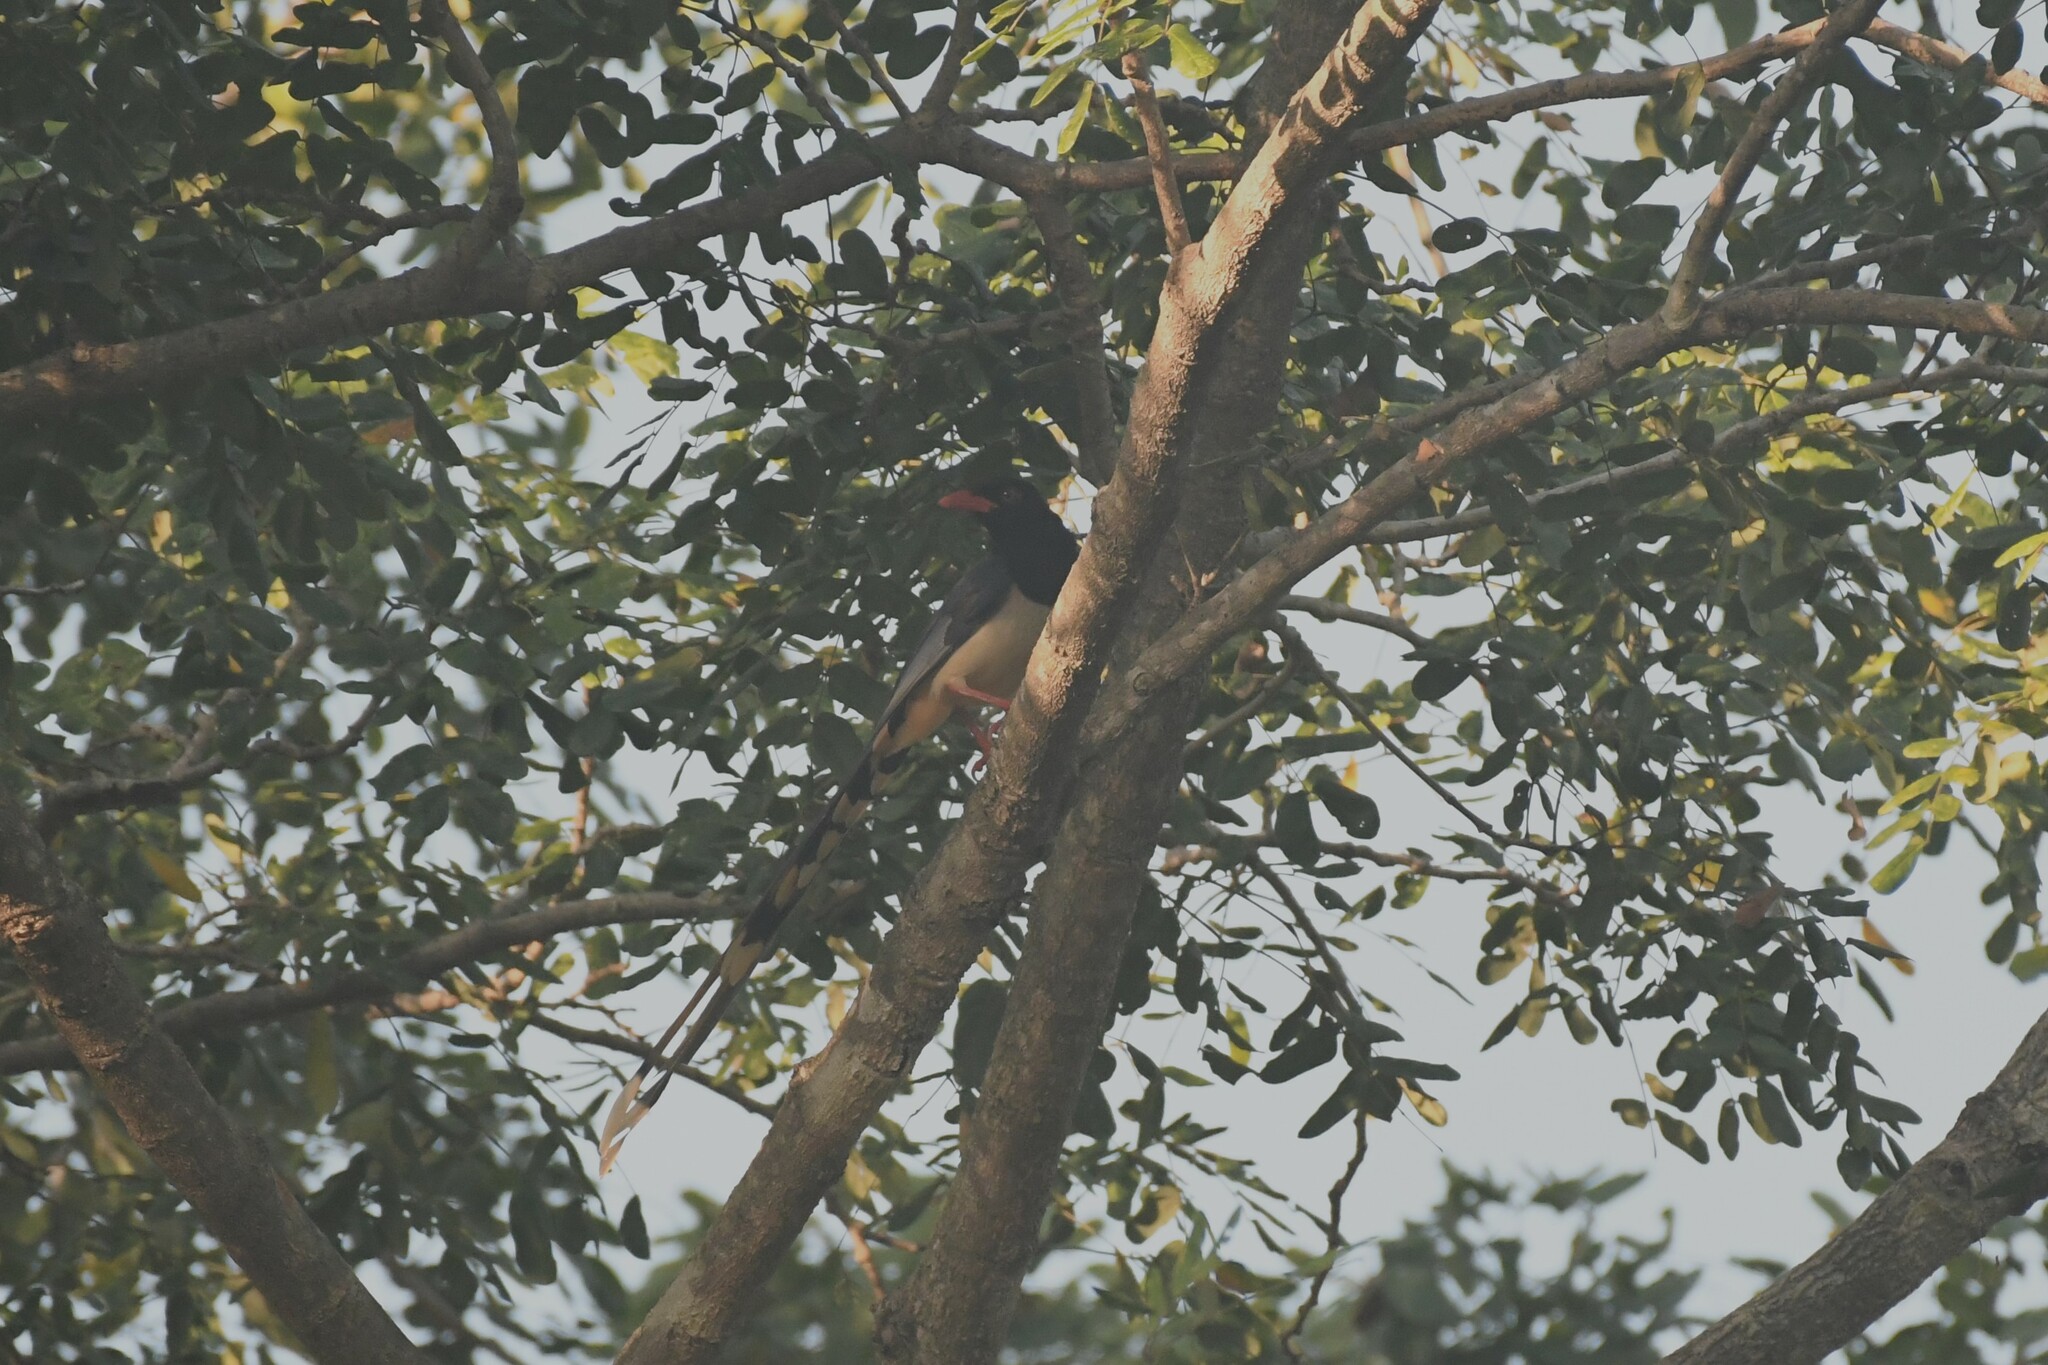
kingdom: Animalia
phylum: Chordata
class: Aves
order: Passeriformes
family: Corvidae
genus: Urocissa
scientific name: Urocissa erythroryncha
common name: Red-billed blue magpie
